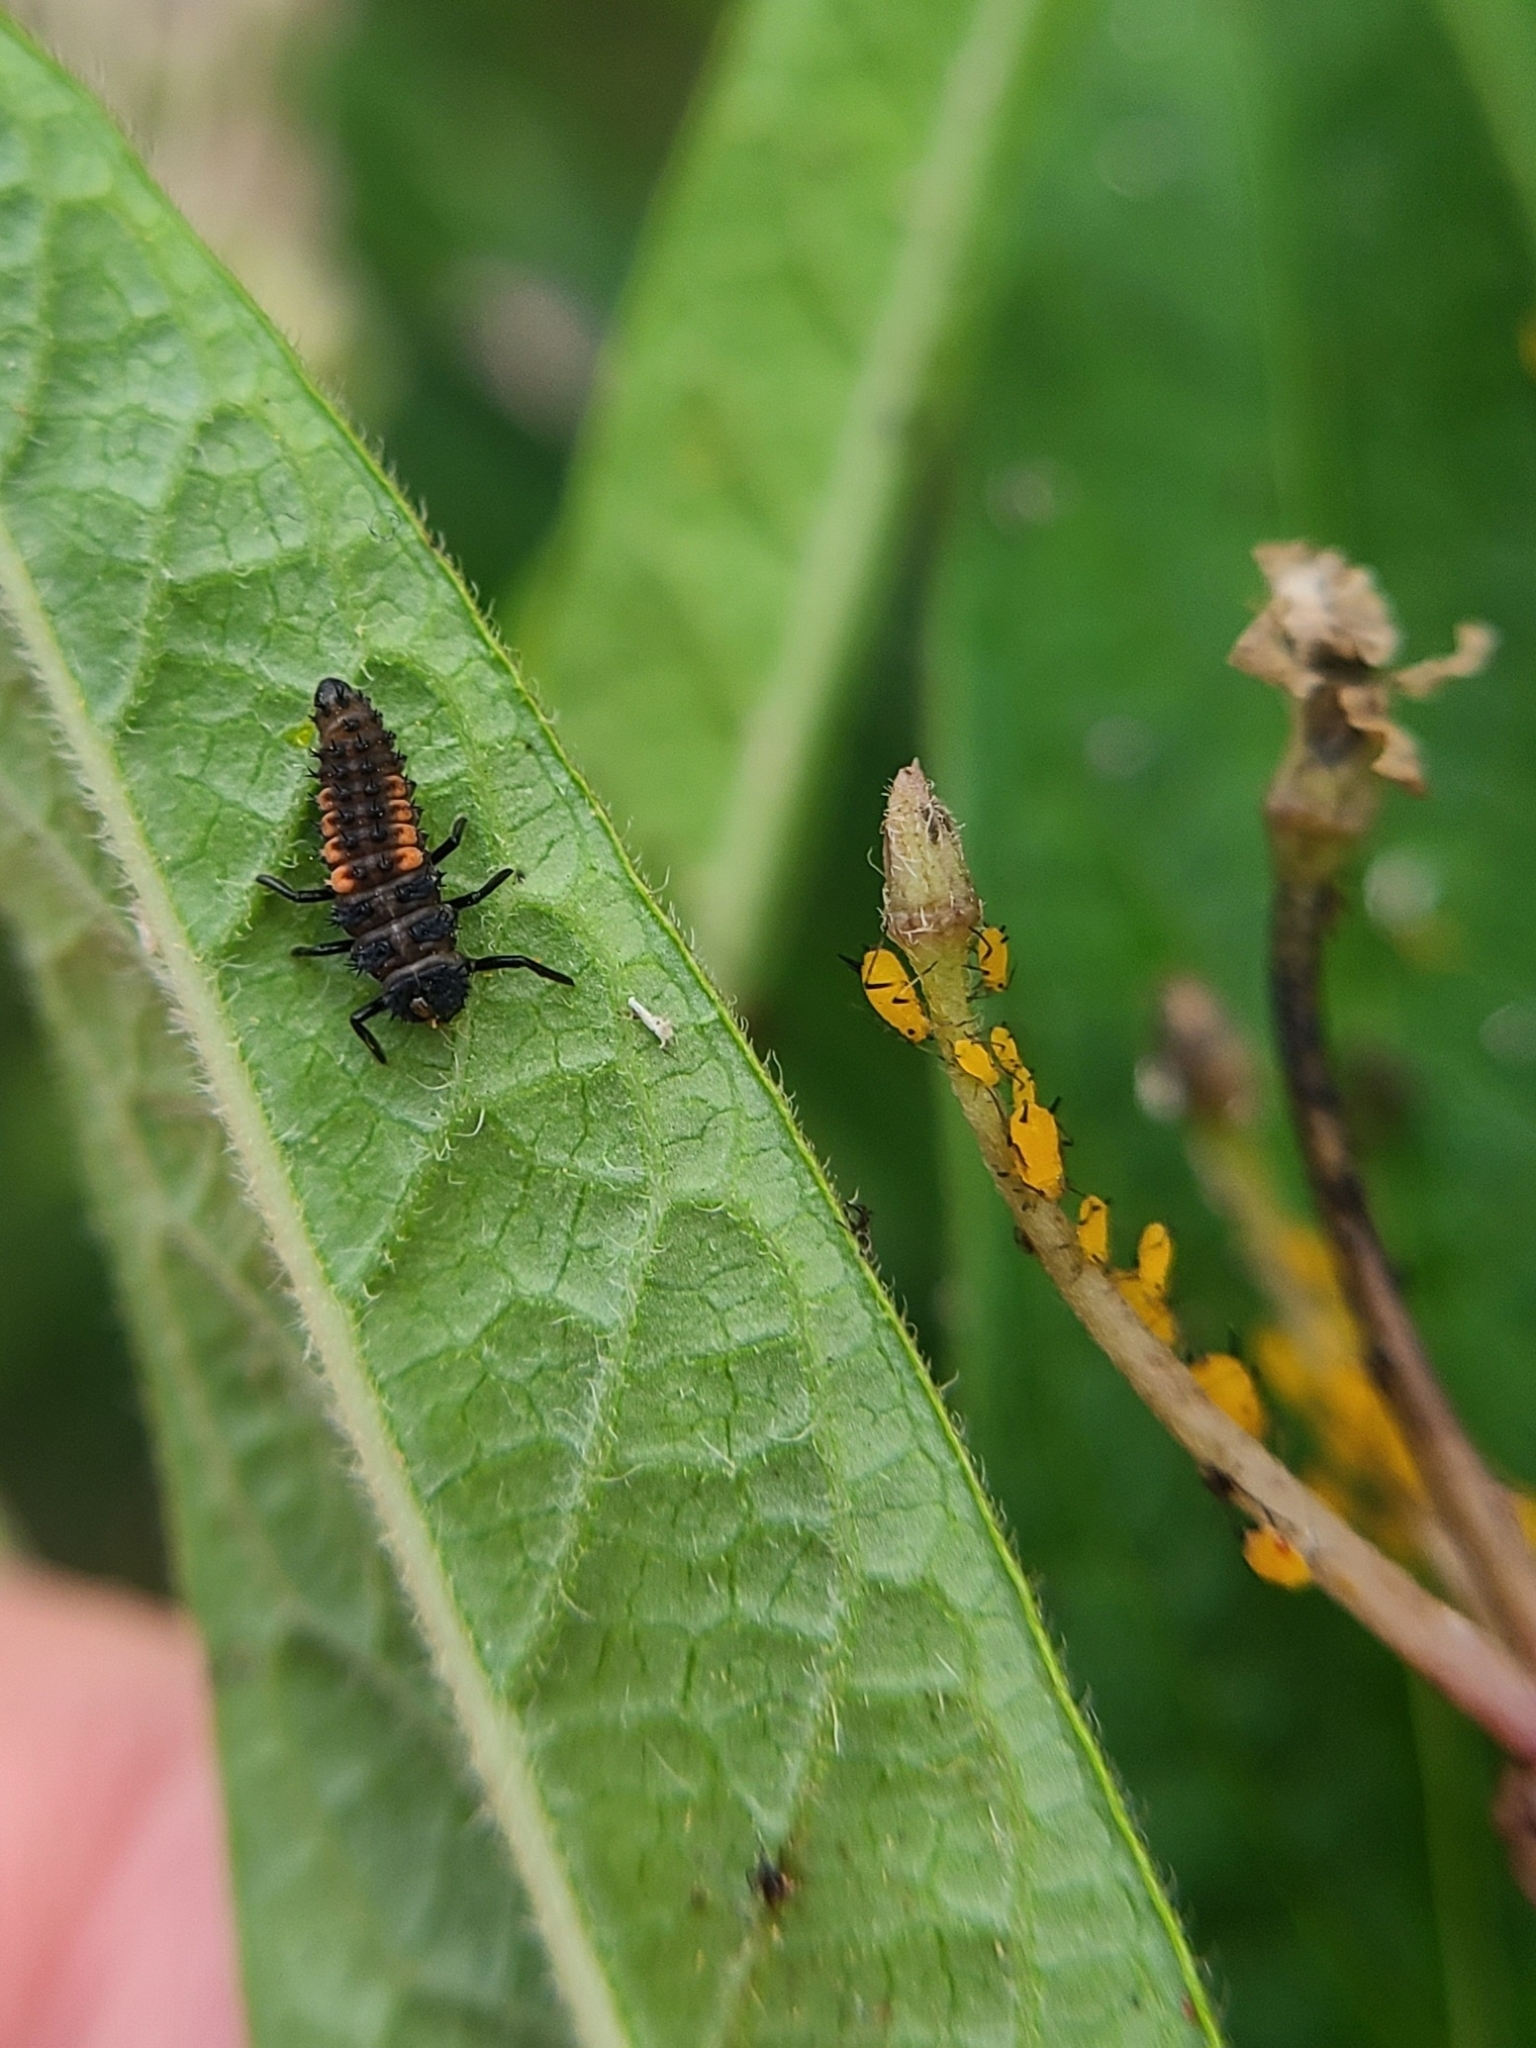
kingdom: Animalia
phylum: Arthropoda
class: Insecta
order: Coleoptera
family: Coccinellidae
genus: Harmonia
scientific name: Harmonia axyridis
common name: Harlequin ladybird
